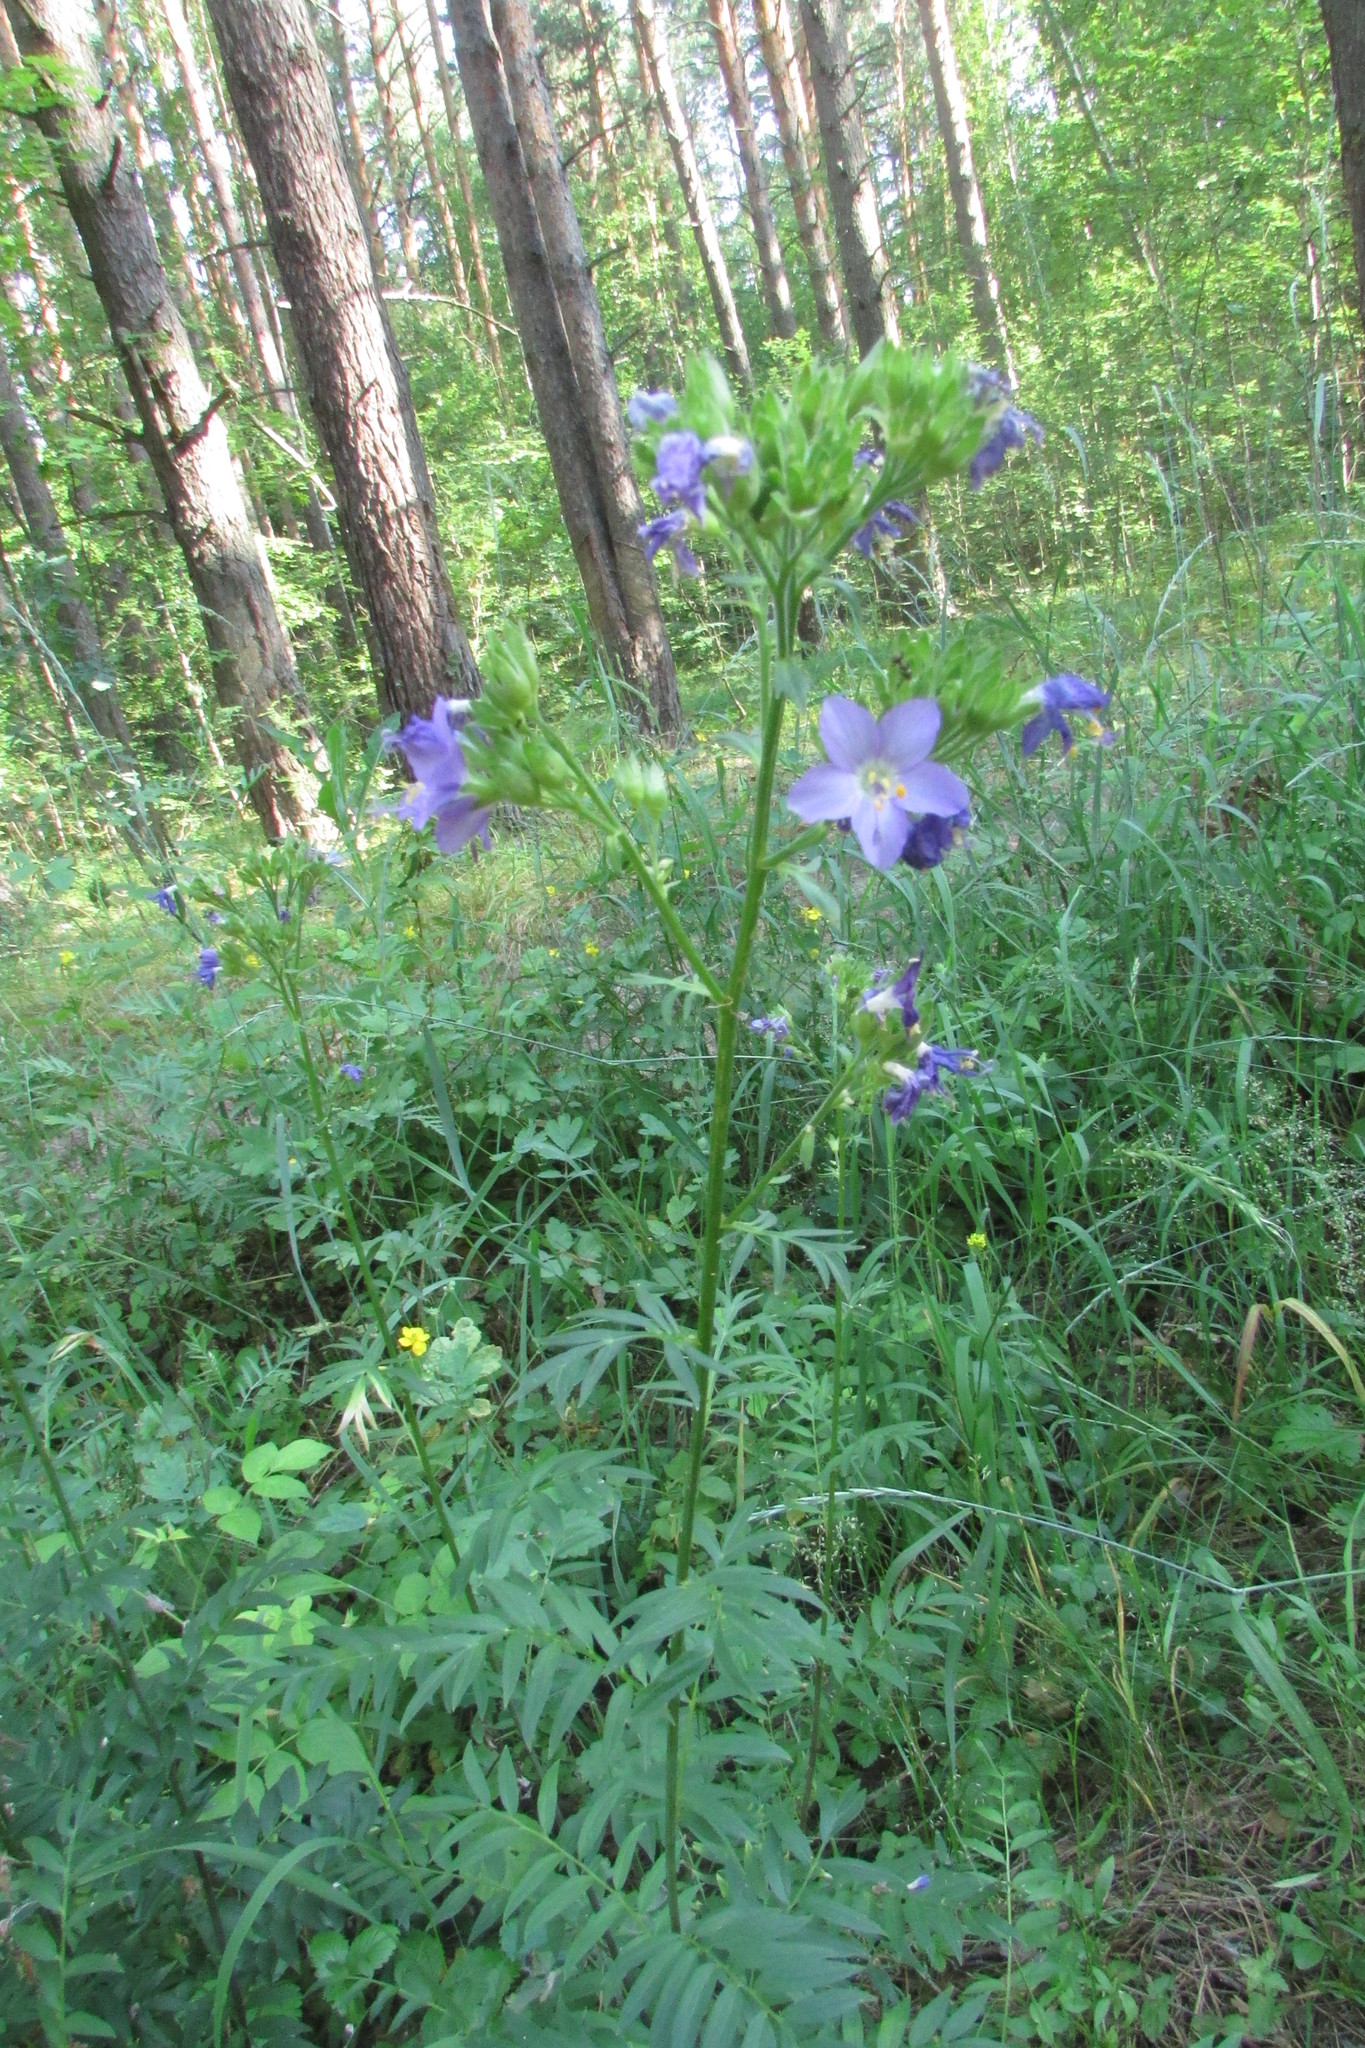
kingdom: Plantae
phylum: Tracheophyta
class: Magnoliopsida
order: Ericales
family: Polemoniaceae
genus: Polemonium
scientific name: Polemonium caeruleum
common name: Jacob's-ladder
